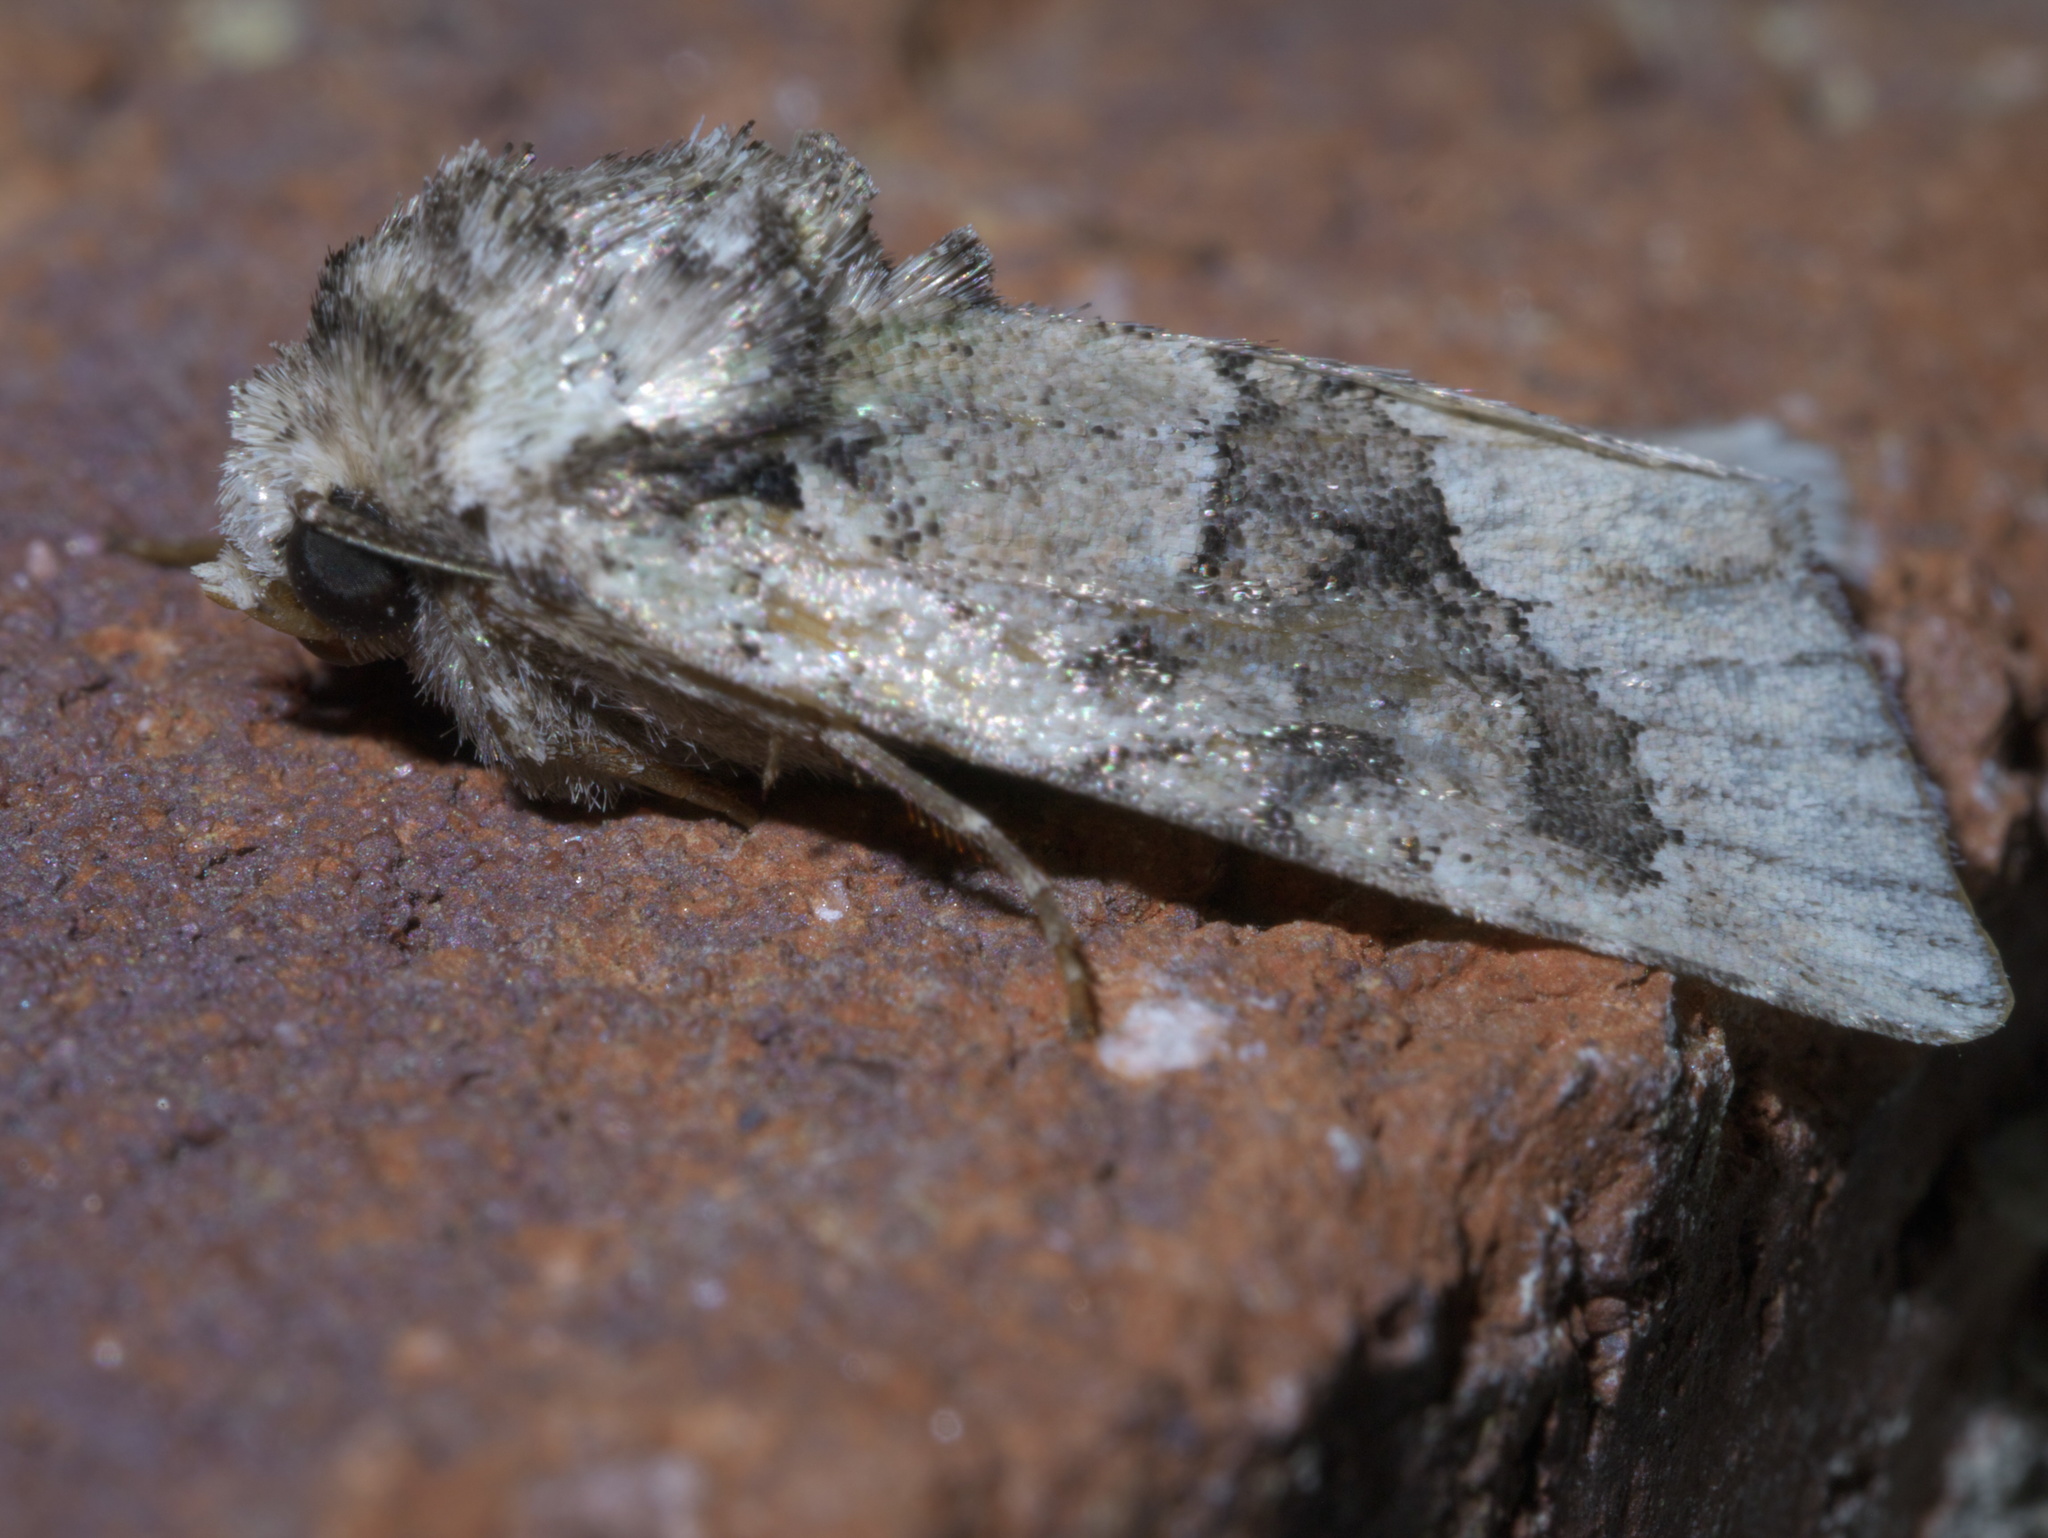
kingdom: Animalia
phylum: Arthropoda
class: Insecta
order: Lepidoptera
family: Noctuidae
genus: Lacinipolia
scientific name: Lacinipolia explicata
